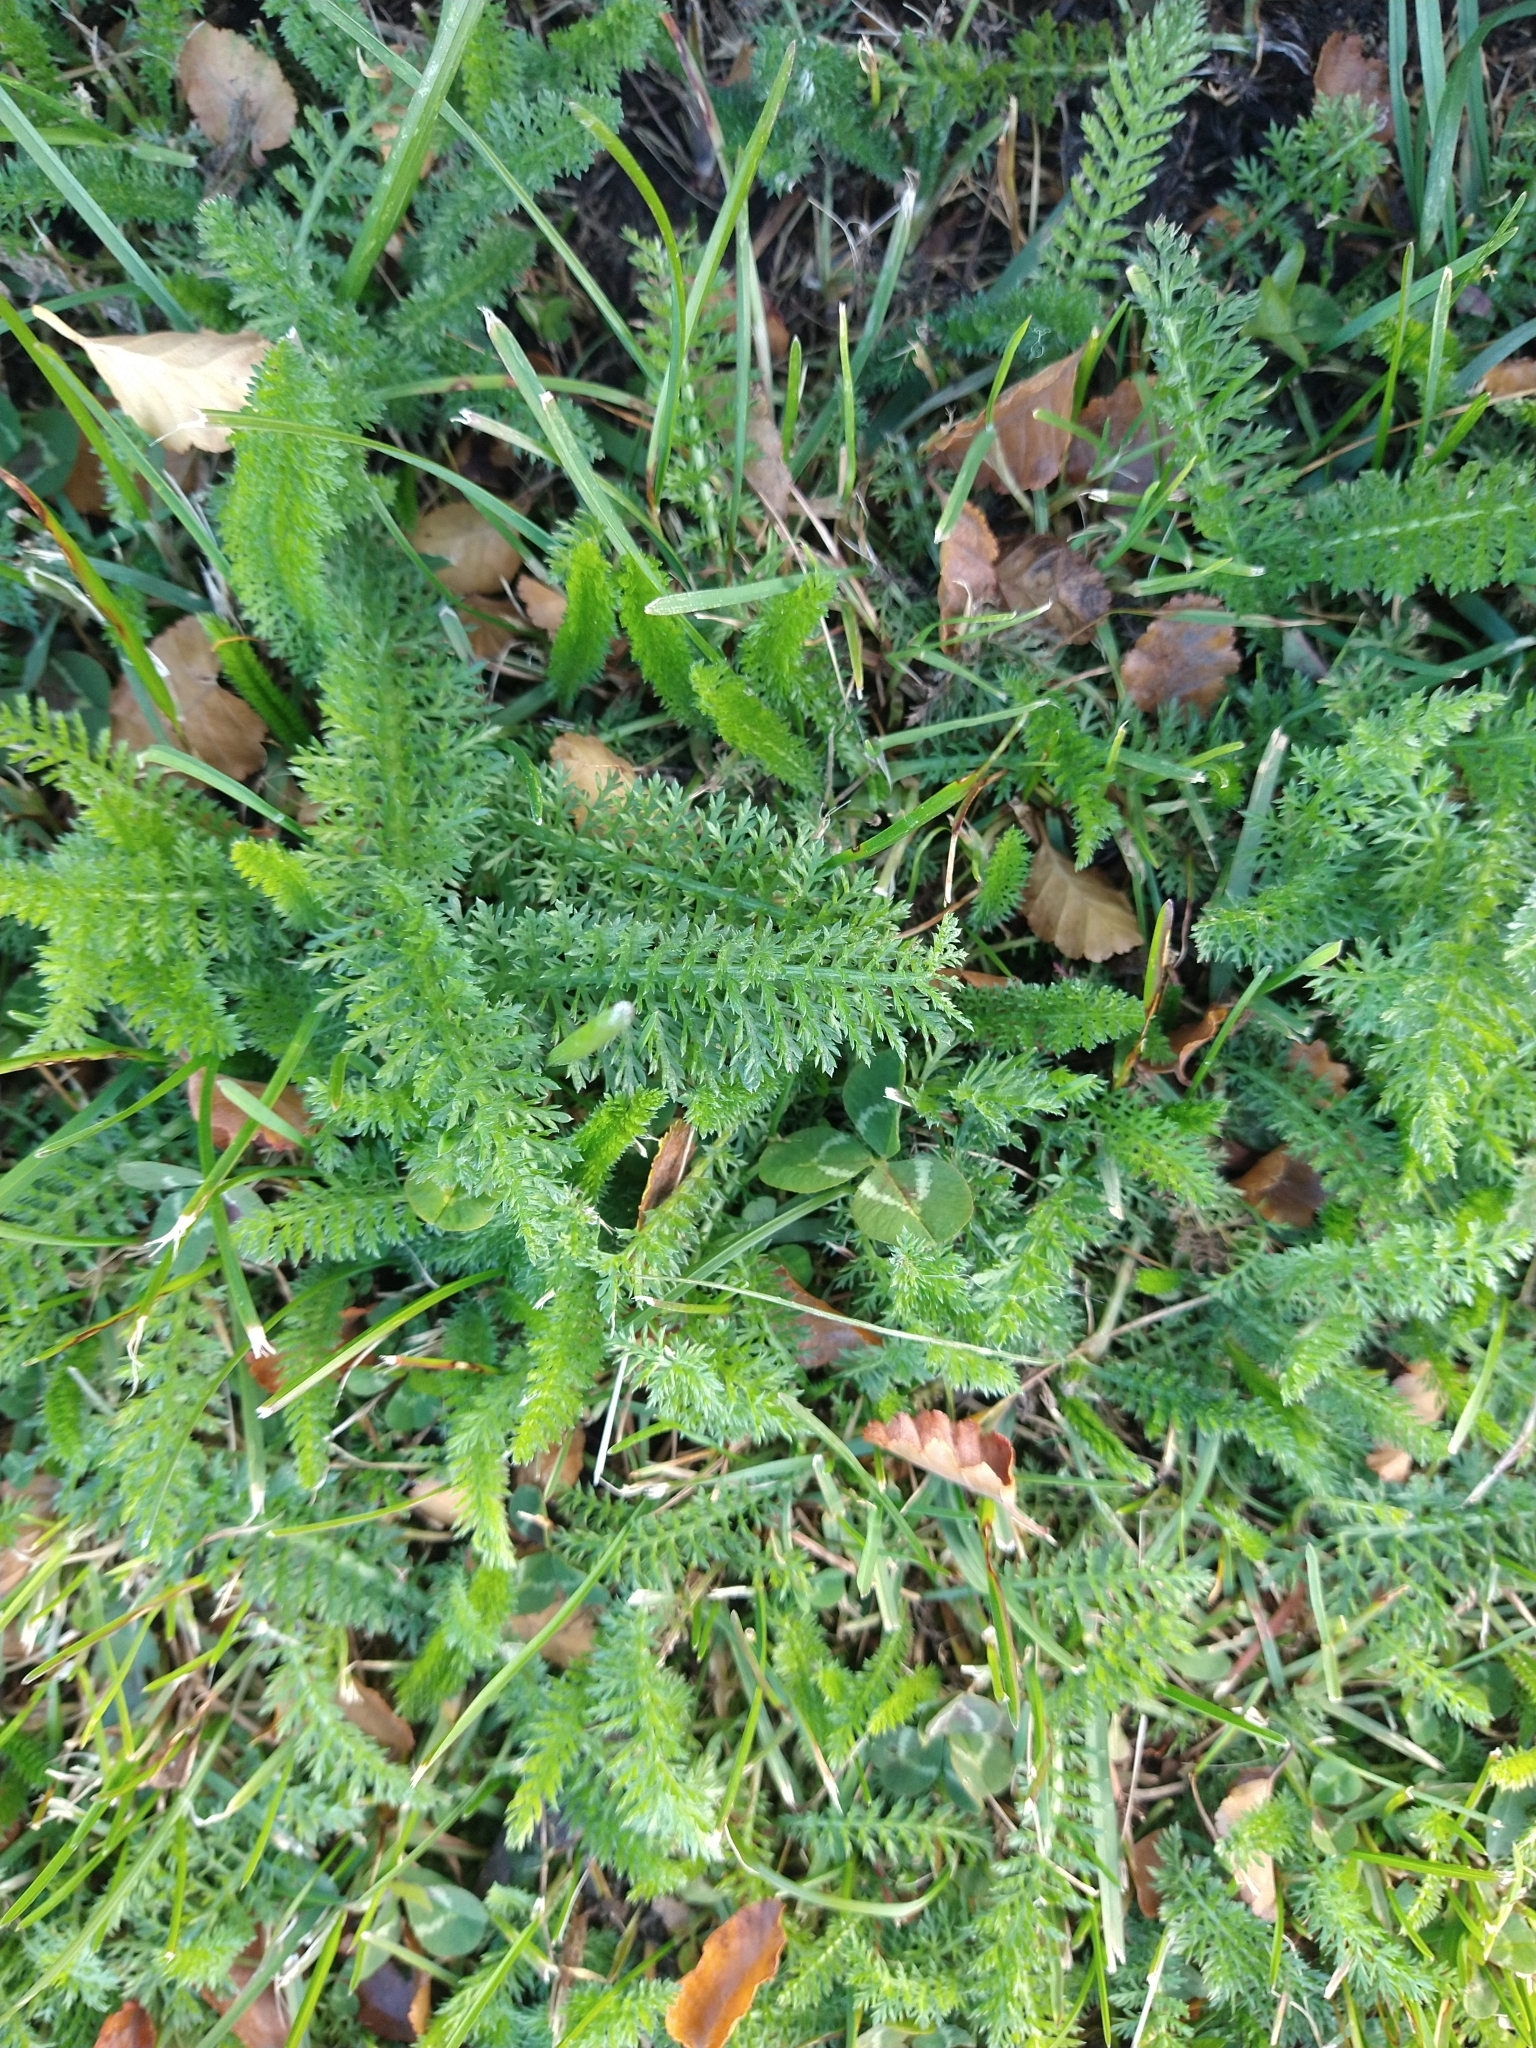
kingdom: Plantae
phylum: Tracheophyta
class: Magnoliopsida
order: Asterales
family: Asteraceae
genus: Achillea
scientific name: Achillea millefolium
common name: Yarrow
